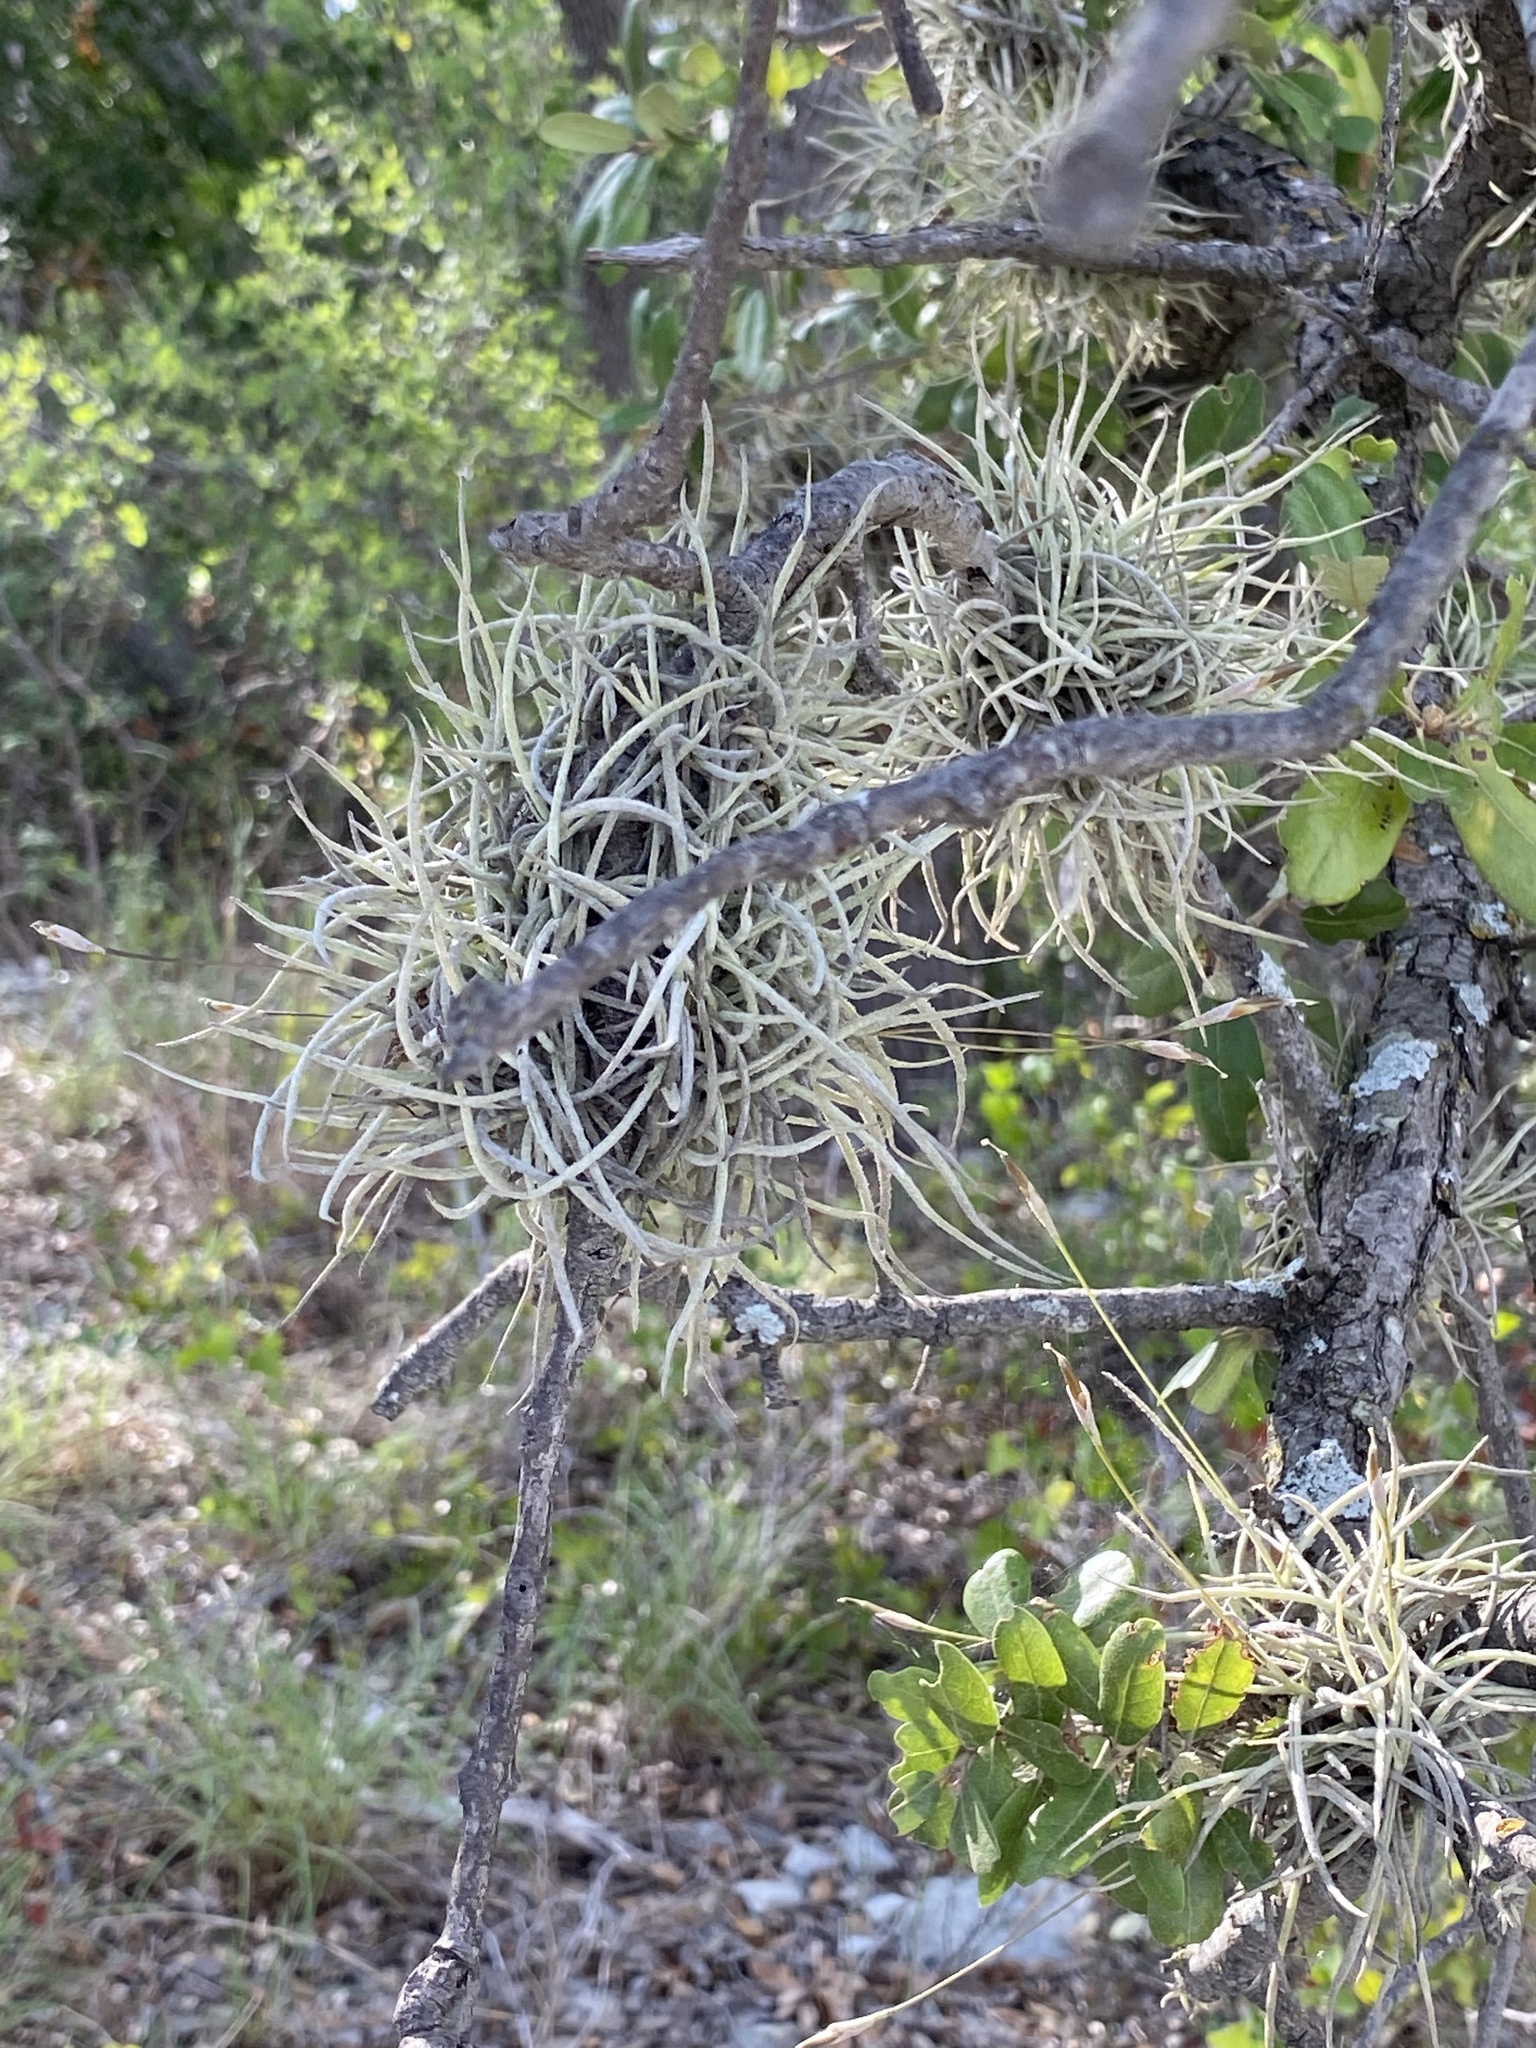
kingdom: Plantae
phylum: Tracheophyta
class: Liliopsida
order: Poales
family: Bromeliaceae
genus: Tillandsia
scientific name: Tillandsia recurvata
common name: Small ballmoss
